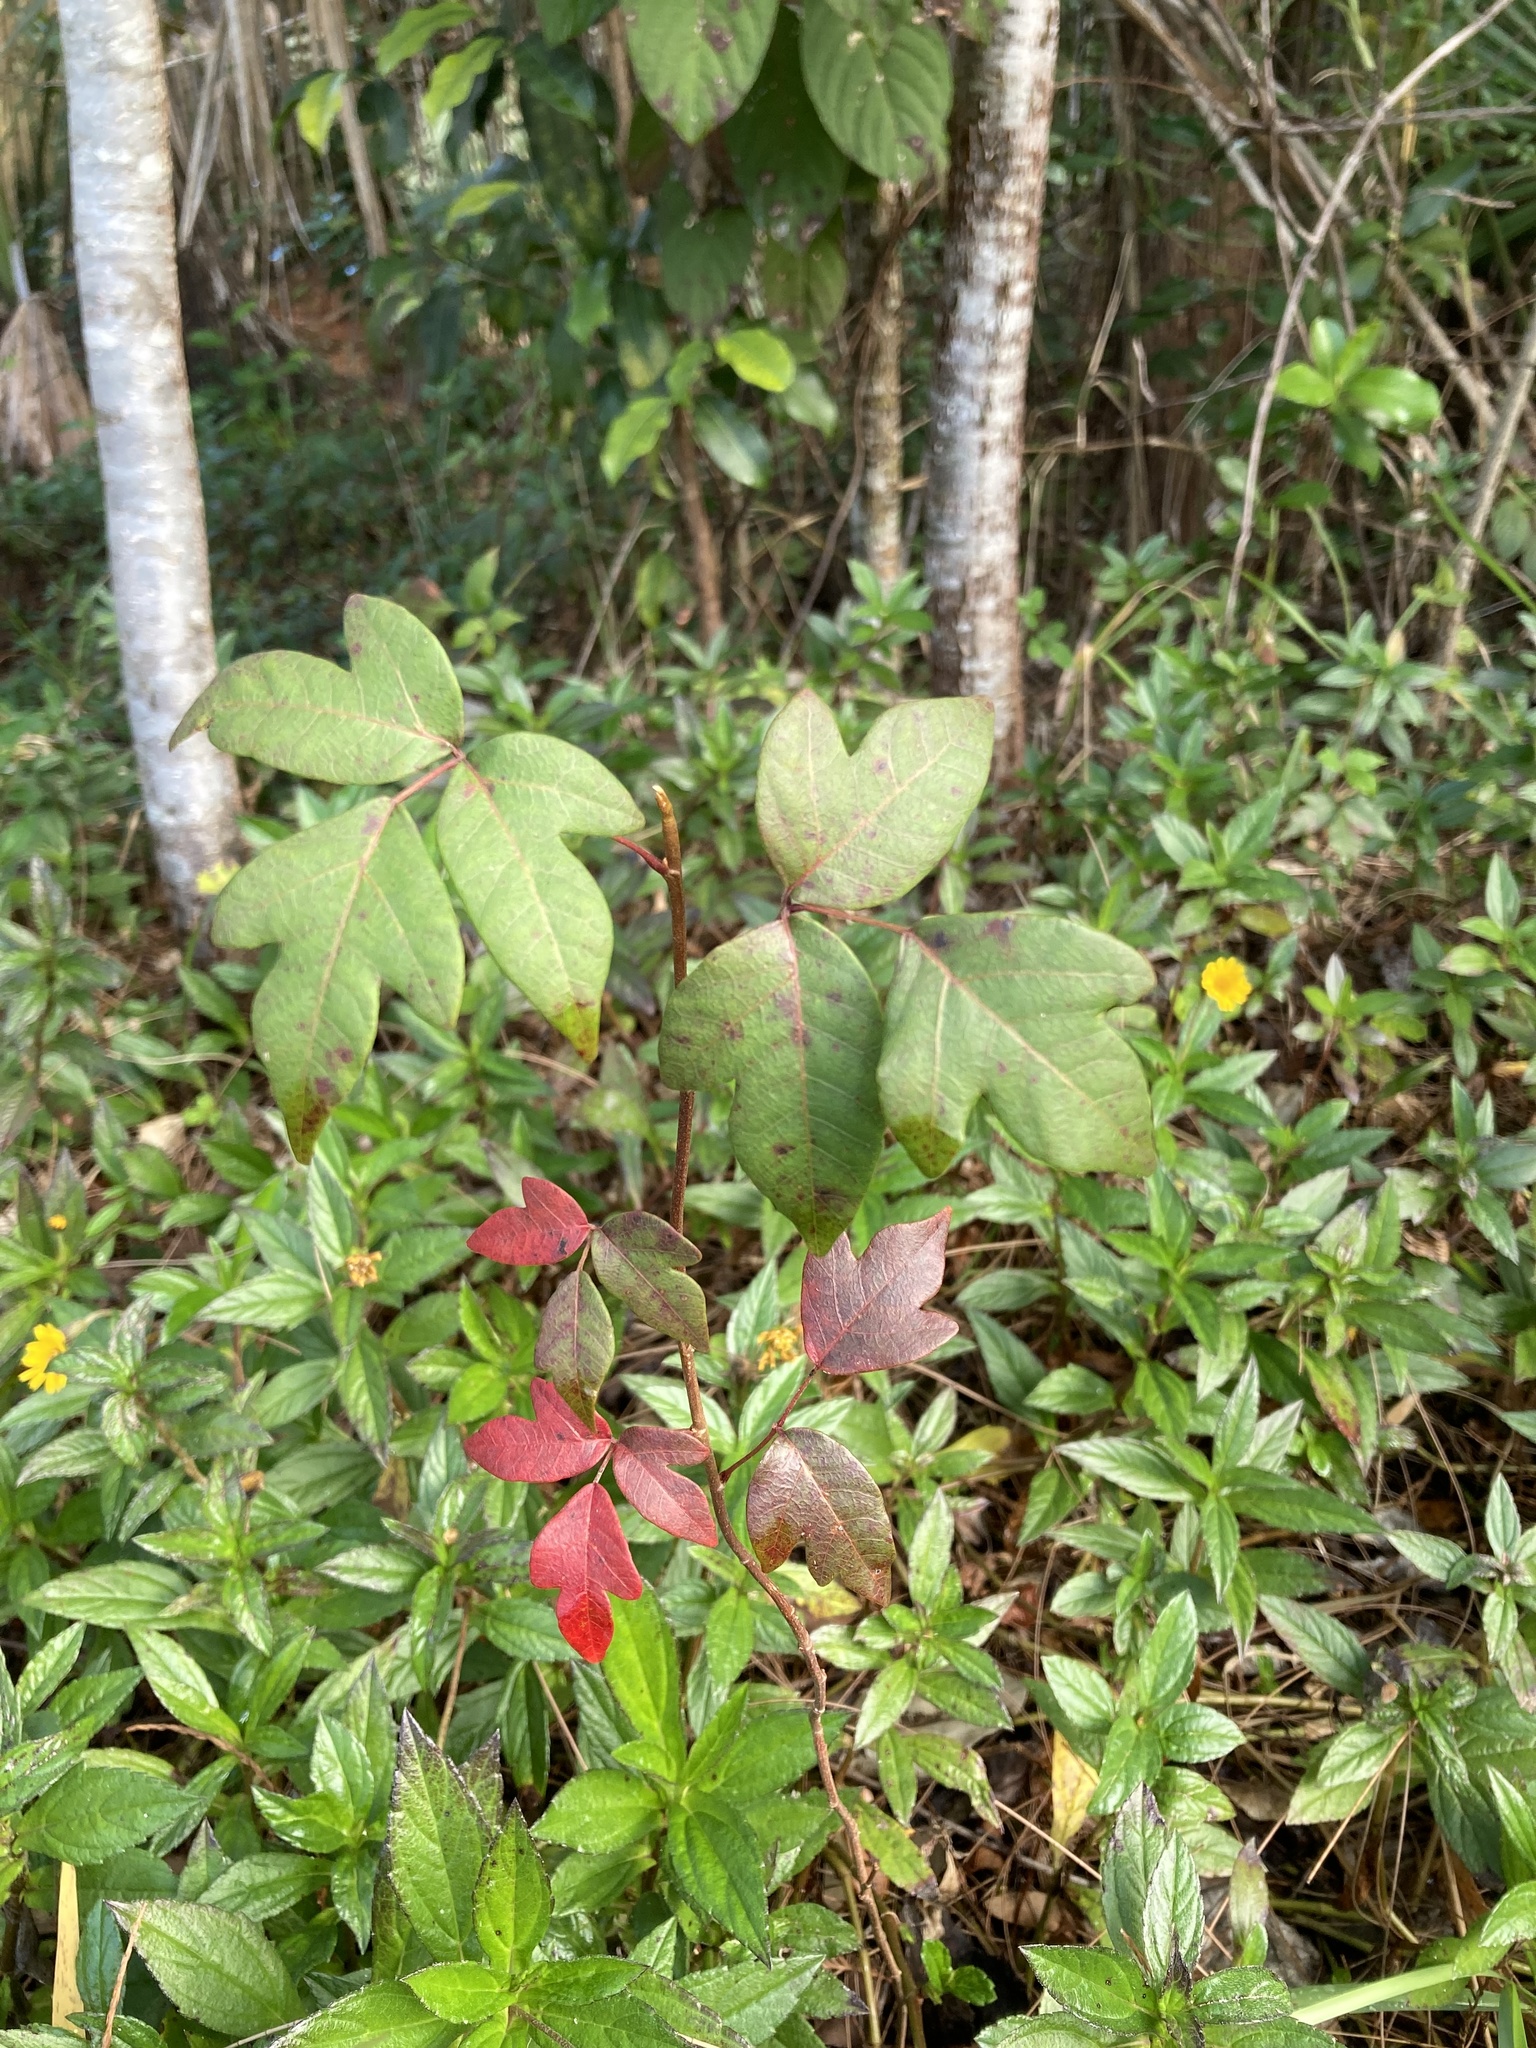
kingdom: Plantae
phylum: Tracheophyta
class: Magnoliopsida
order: Sapindales
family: Anacardiaceae
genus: Toxicodendron
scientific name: Toxicodendron radicans
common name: Poison ivy
